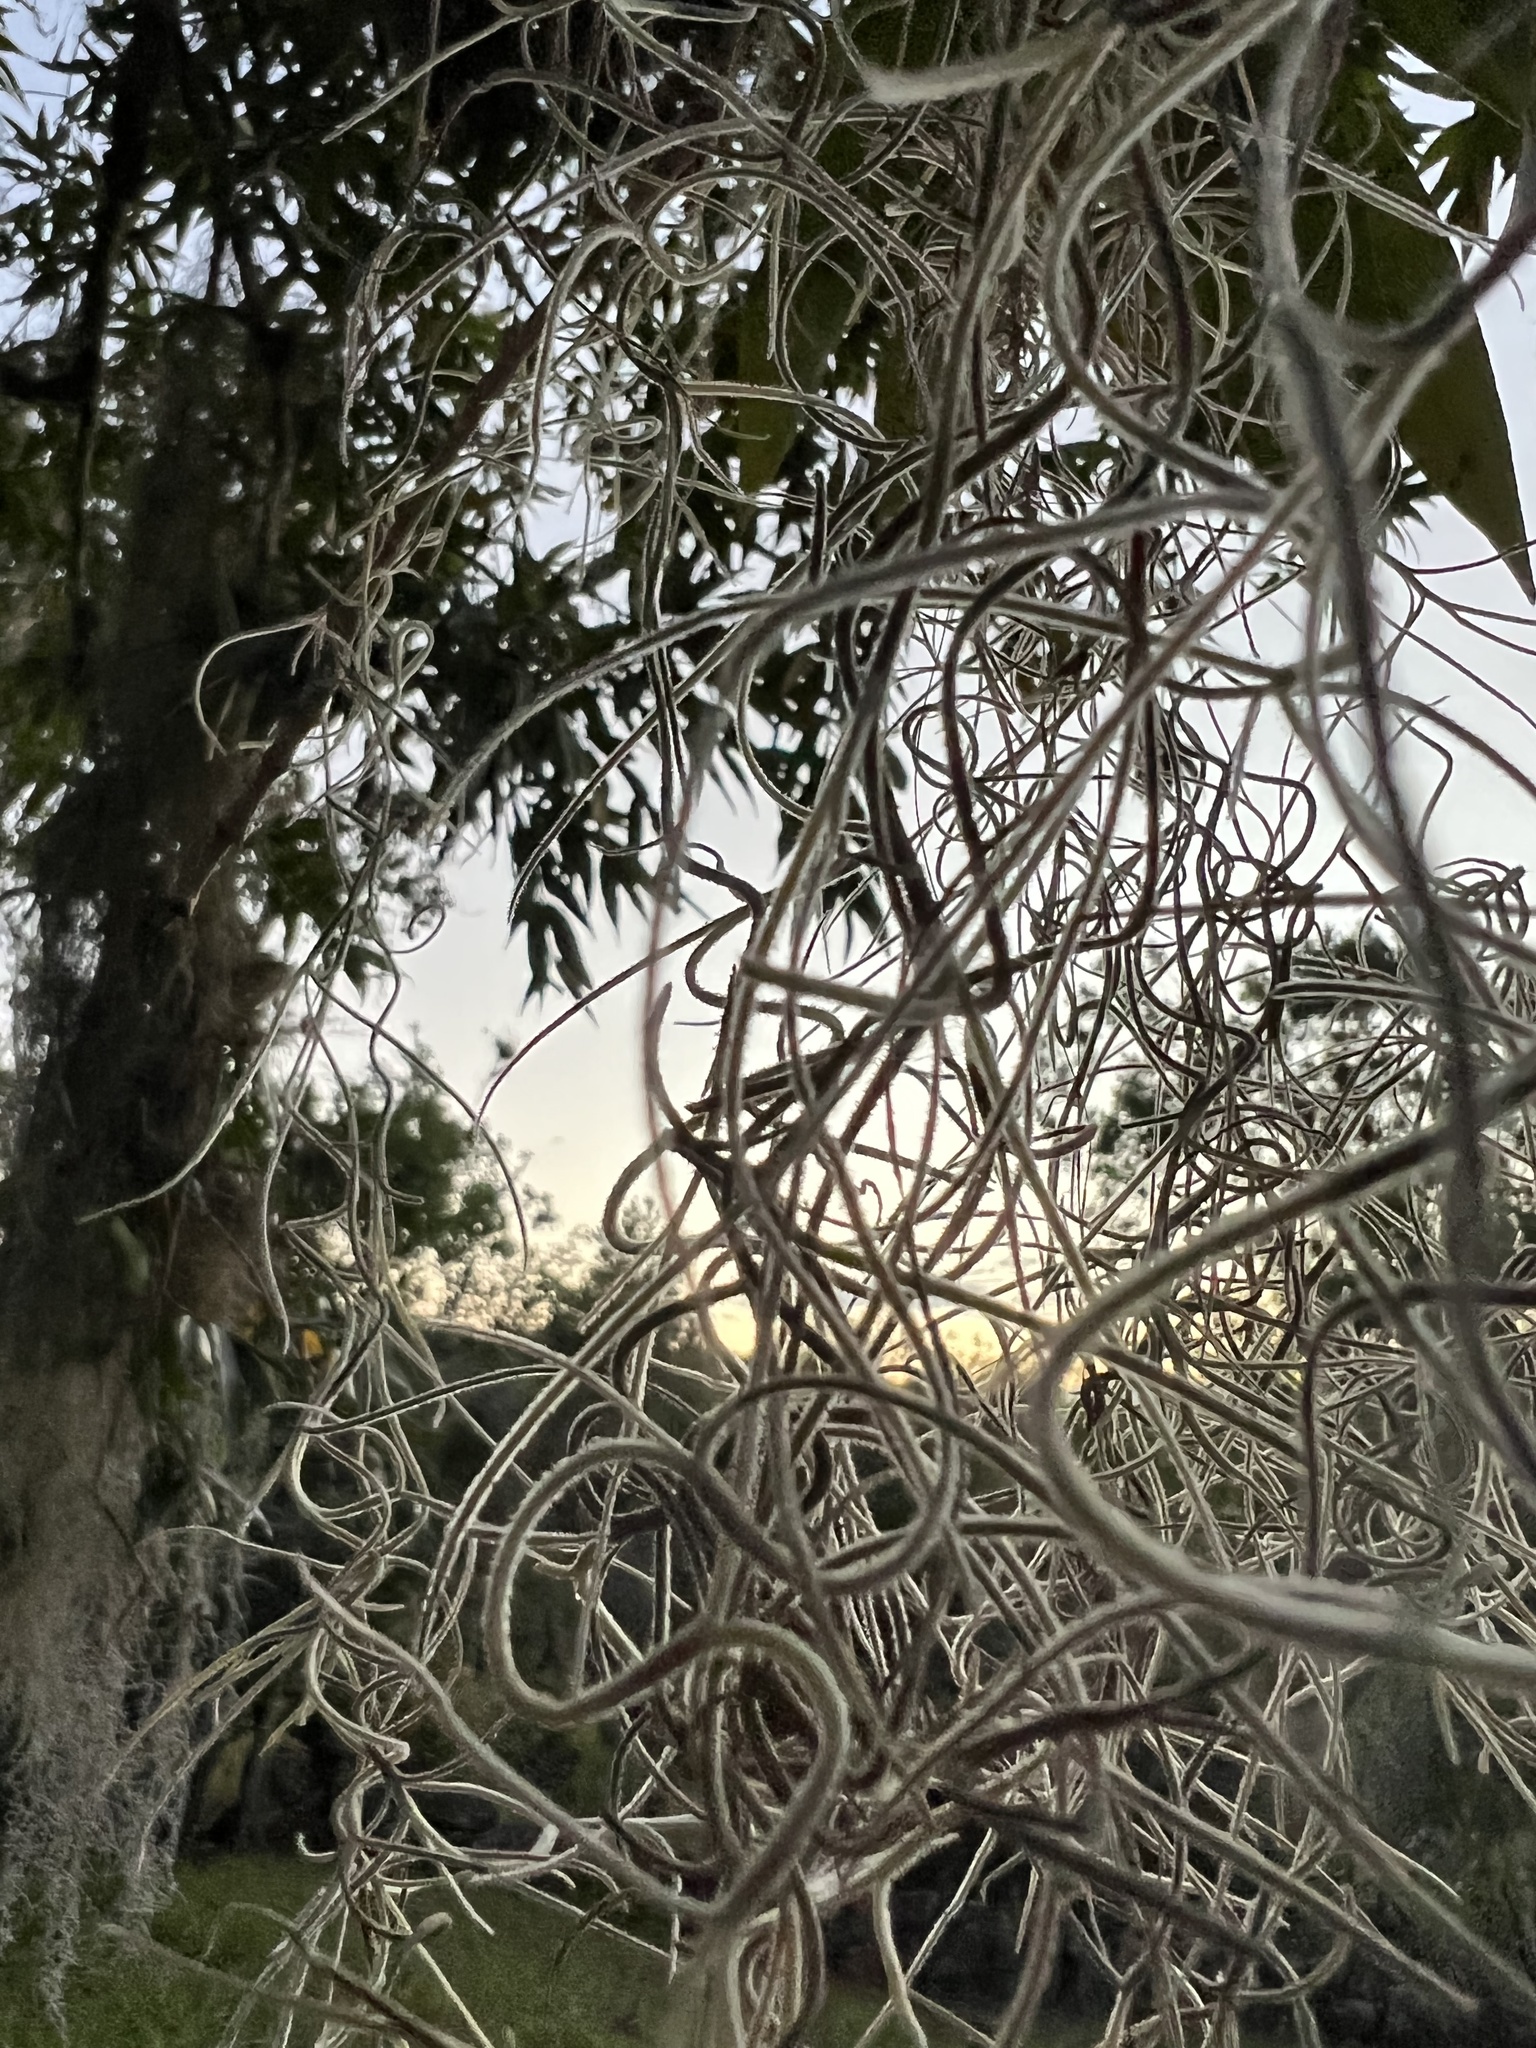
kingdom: Plantae
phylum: Tracheophyta
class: Liliopsida
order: Poales
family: Bromeliaceae
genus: Tillandsia
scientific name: Tillandsia usneoides
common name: Spanish moss
